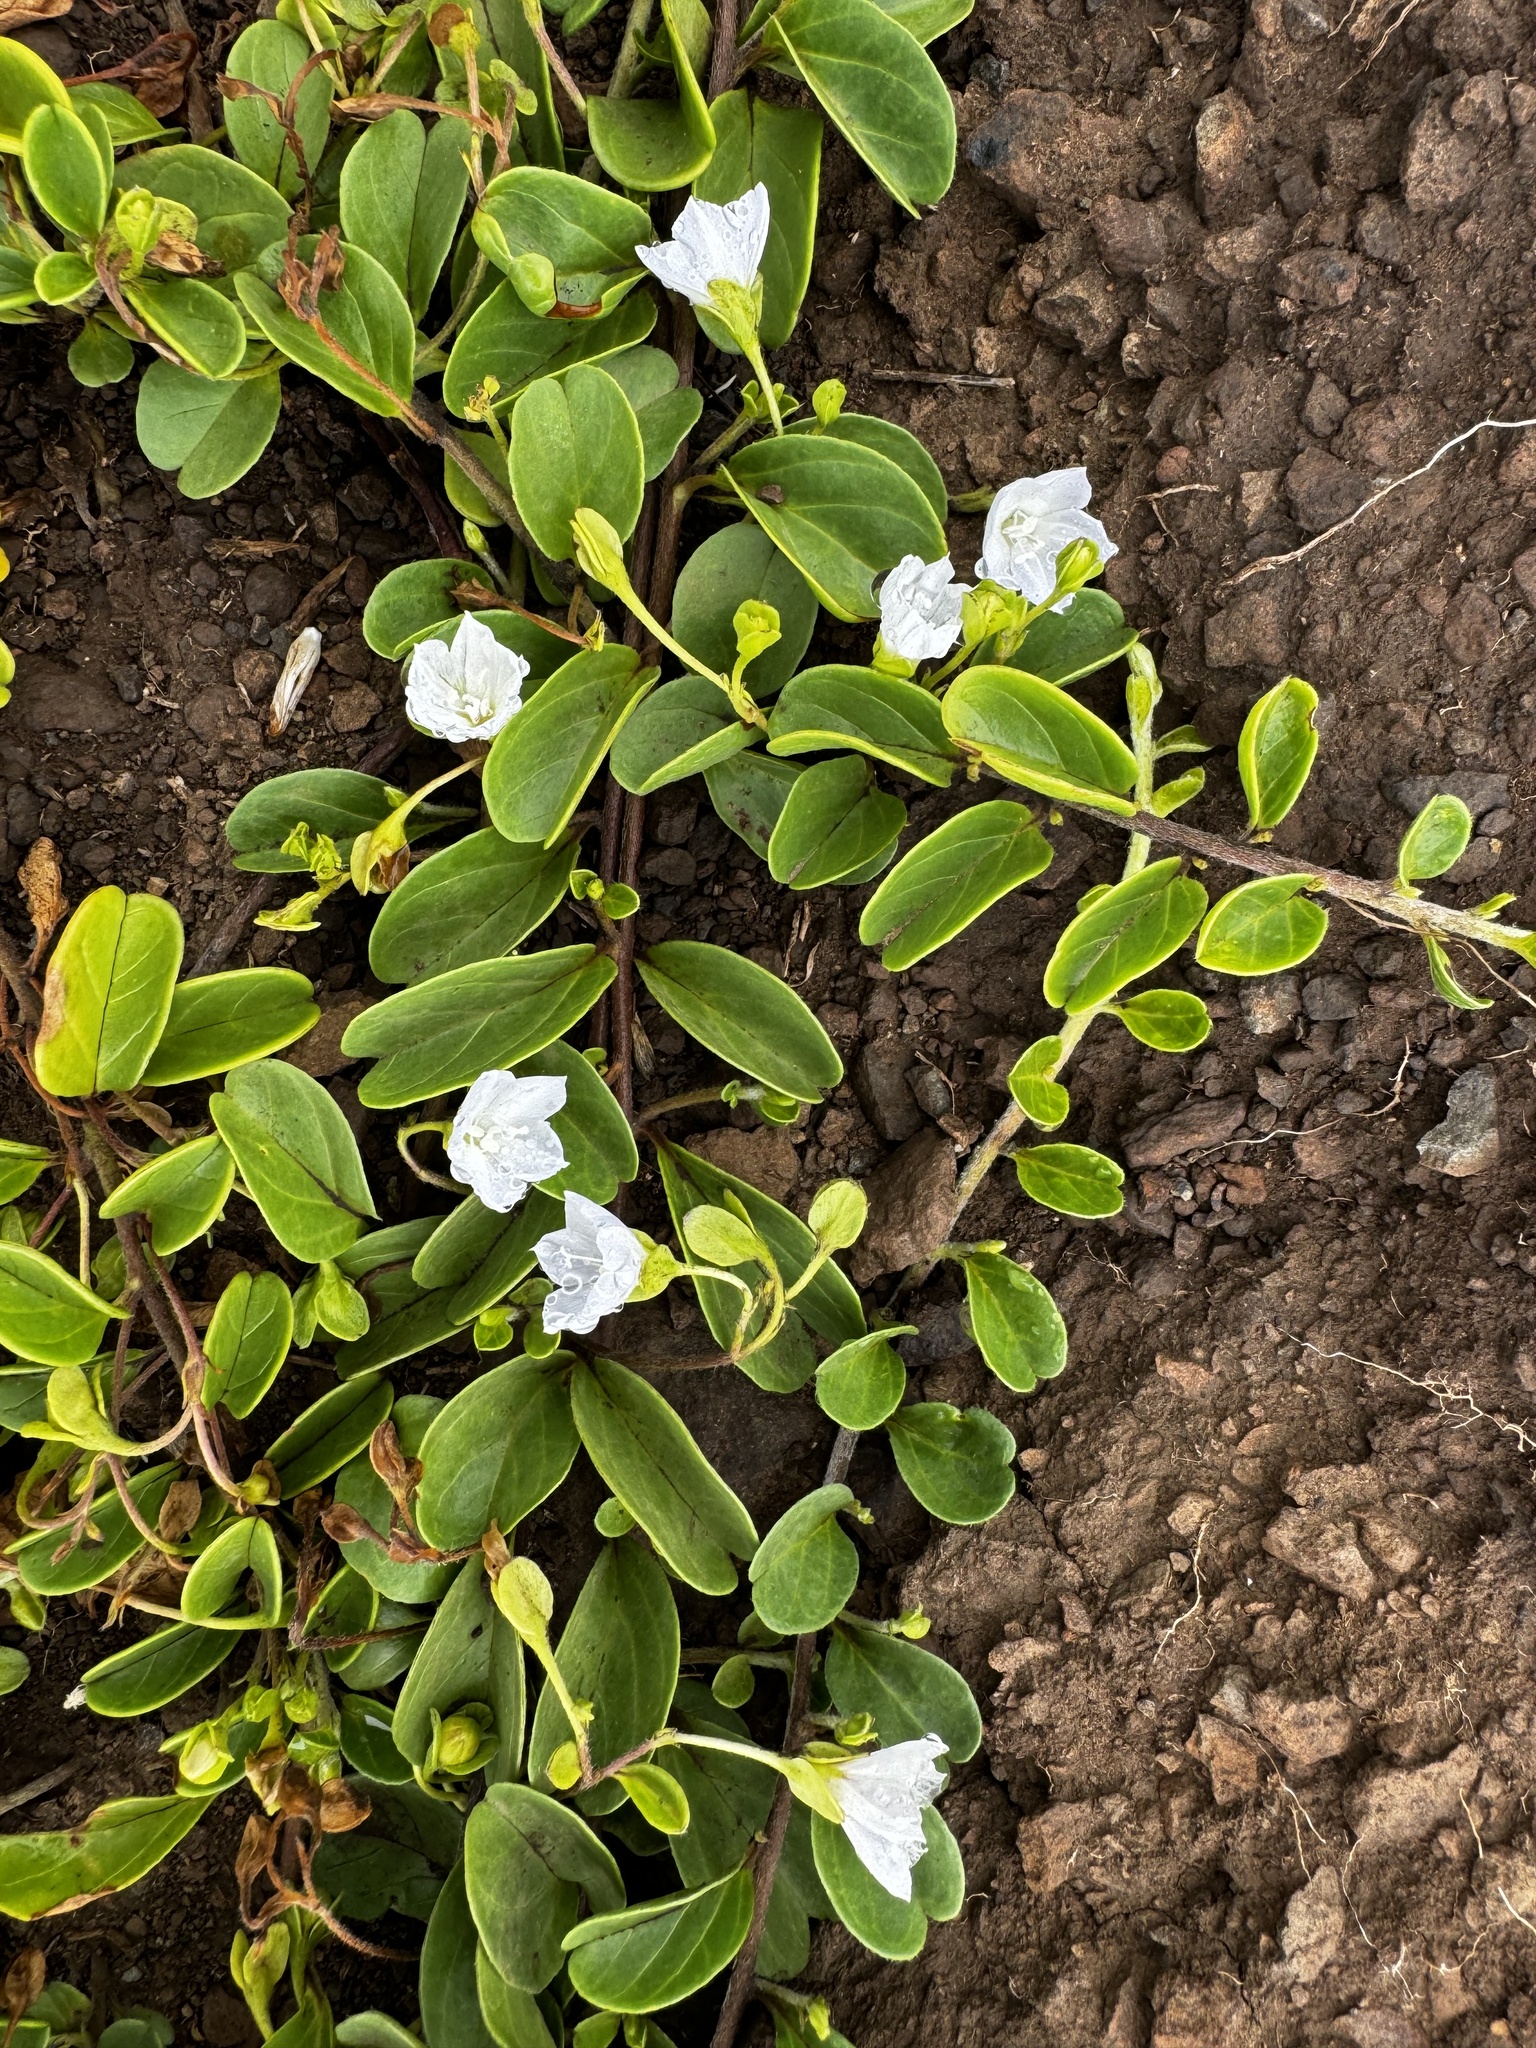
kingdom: Plantae
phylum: Tracheophyta
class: Magnoliopsida
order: Solanales
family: Convolvulaceae
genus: Jacquemontia
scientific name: Jacquemontia sandwicensis
